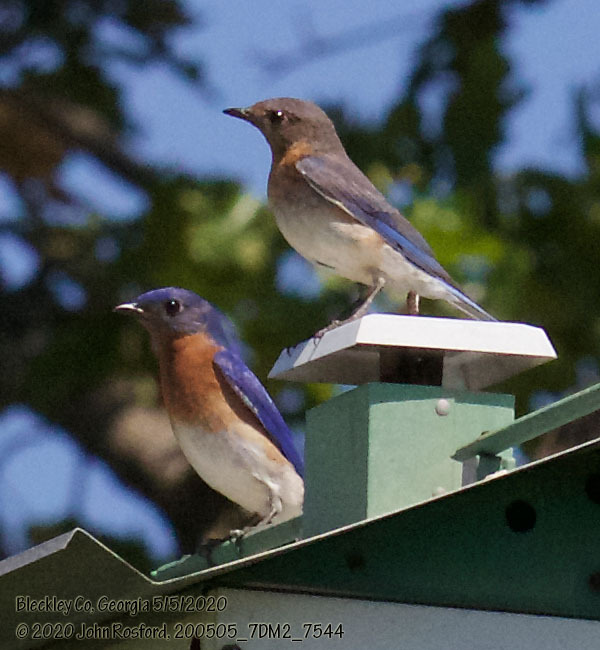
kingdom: Animalia
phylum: Chordata
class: Aves
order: Passeriformes
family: Turdidae
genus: Sialia
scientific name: Sialia sialis
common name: Eastern bluebird
